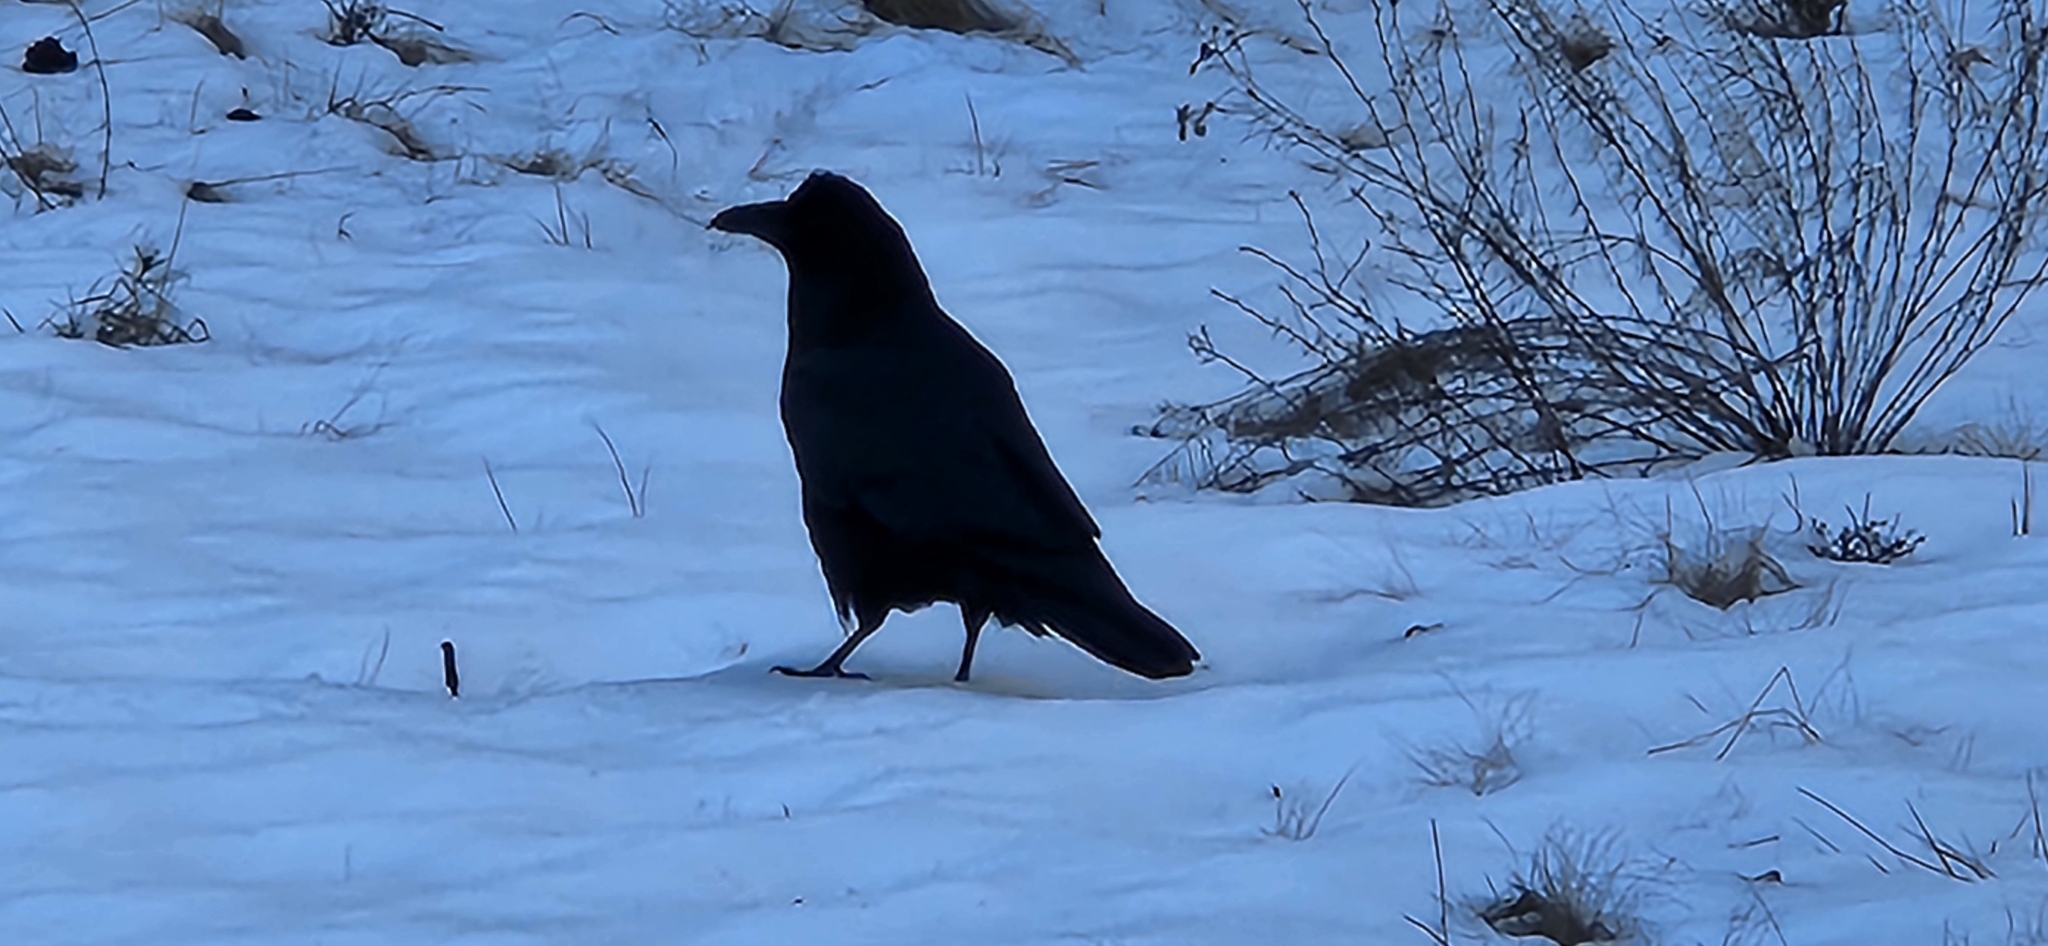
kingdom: Animalia
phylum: Chordata
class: Aves
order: Passeriformes
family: Corvidae
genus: Corvus
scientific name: Corvus corax
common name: Common raven
